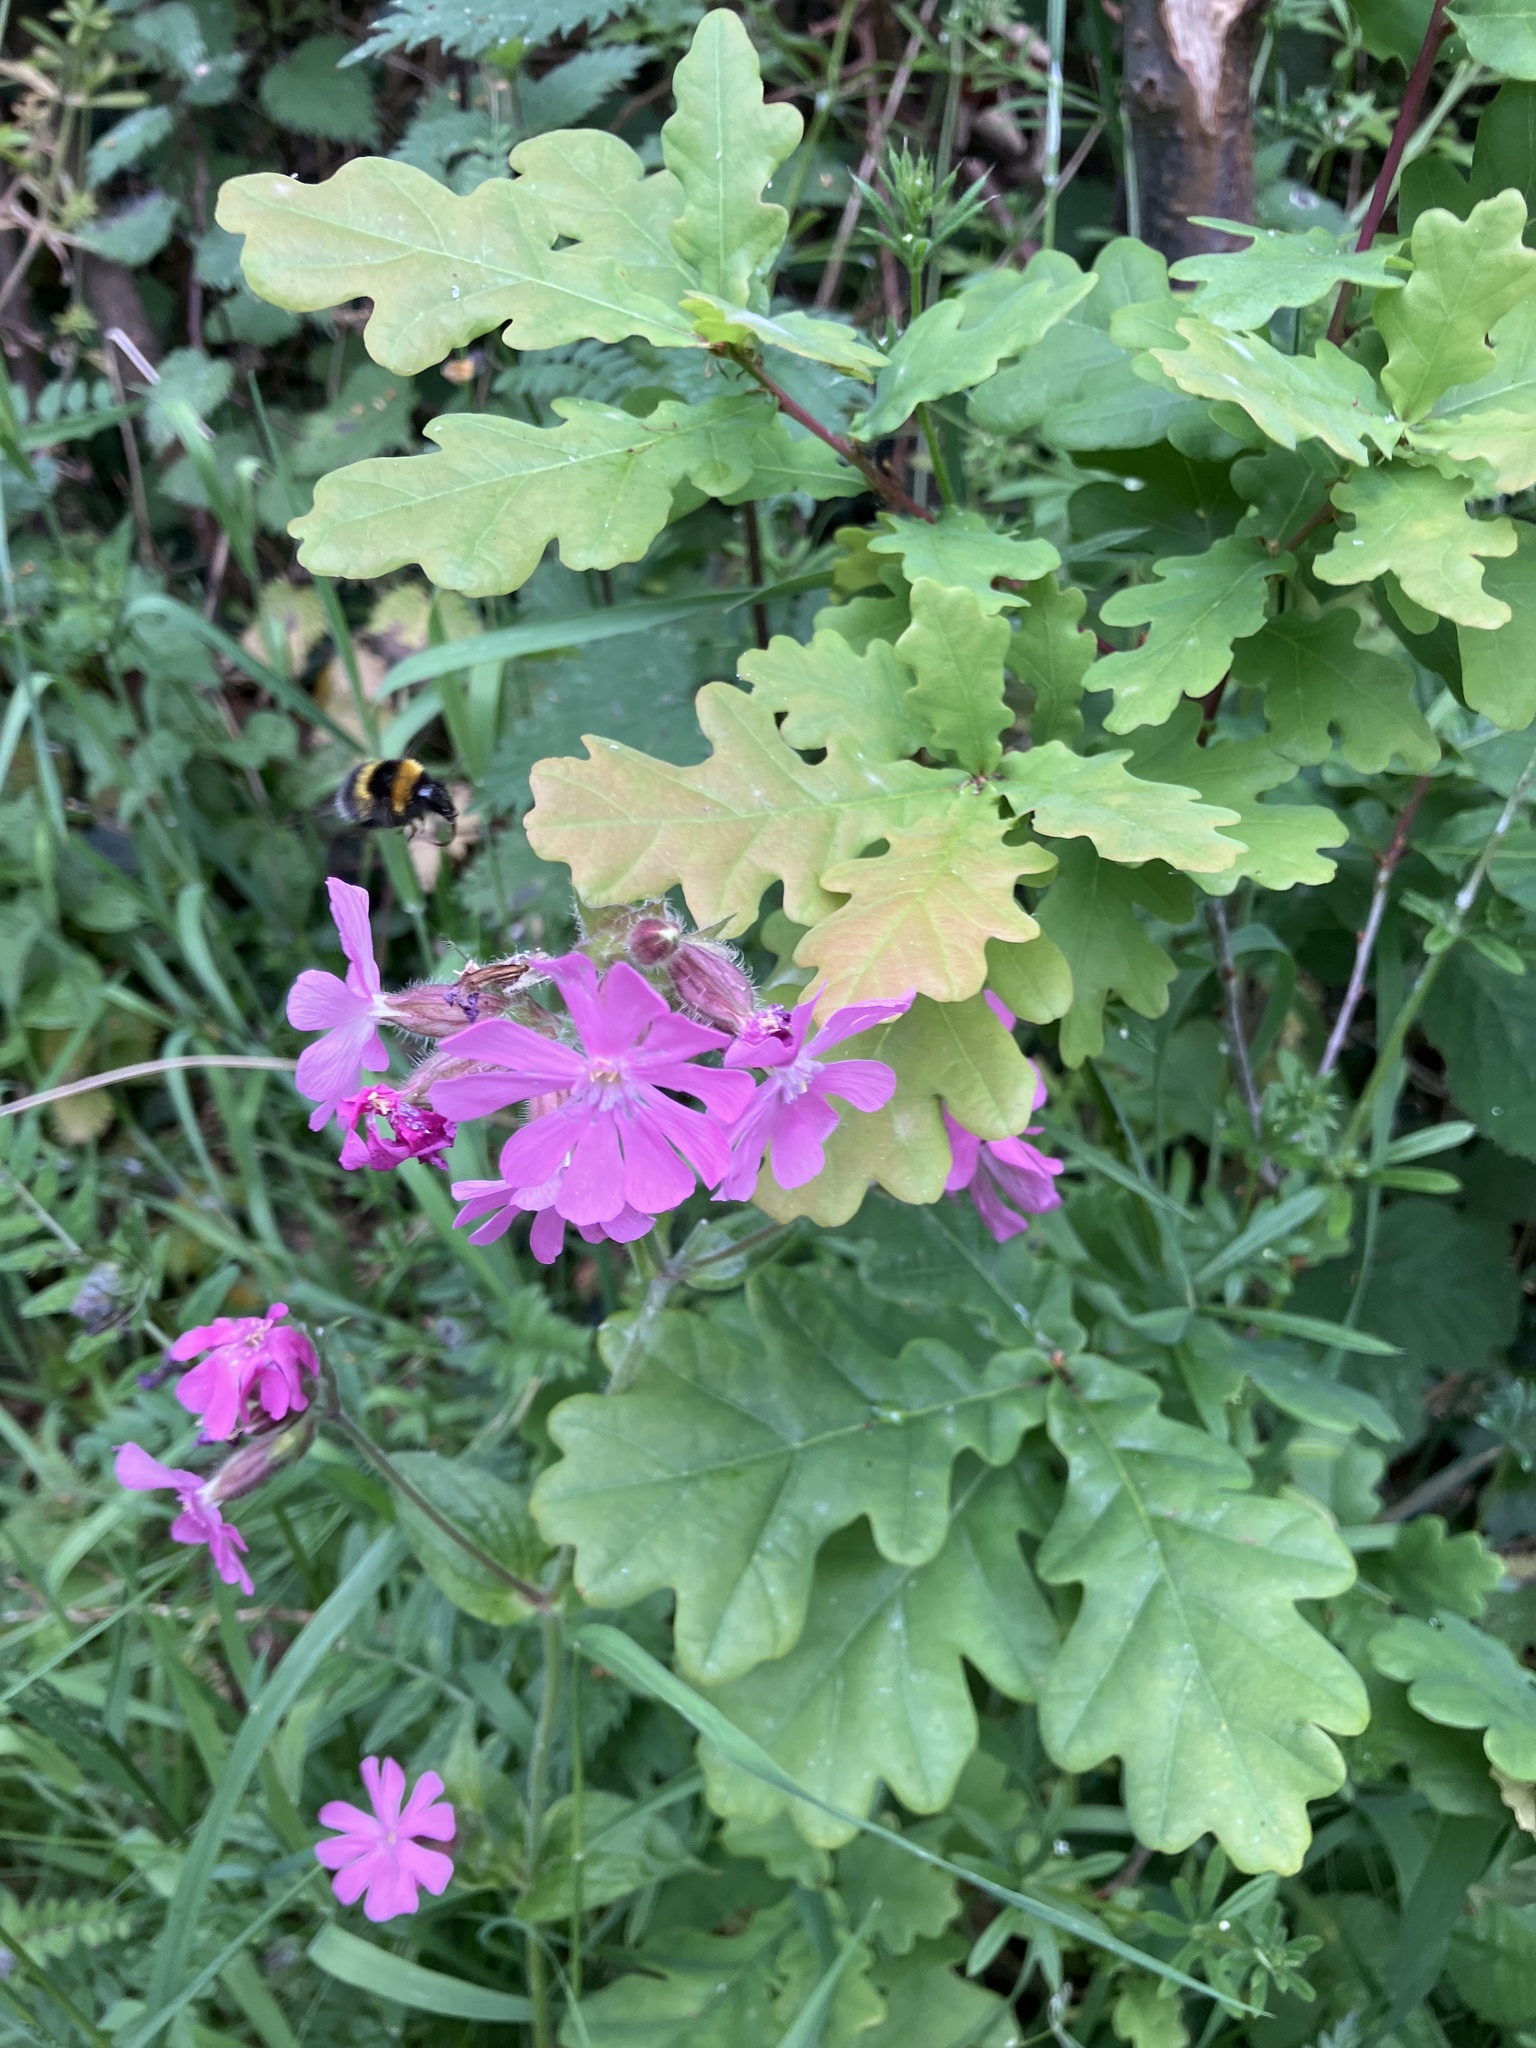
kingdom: Plantae
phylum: Tracheophyta
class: Magnoliopsida
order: Caryophyllales
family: Caryophyllaceae
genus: Silene
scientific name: Silene dioica
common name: Red campion
